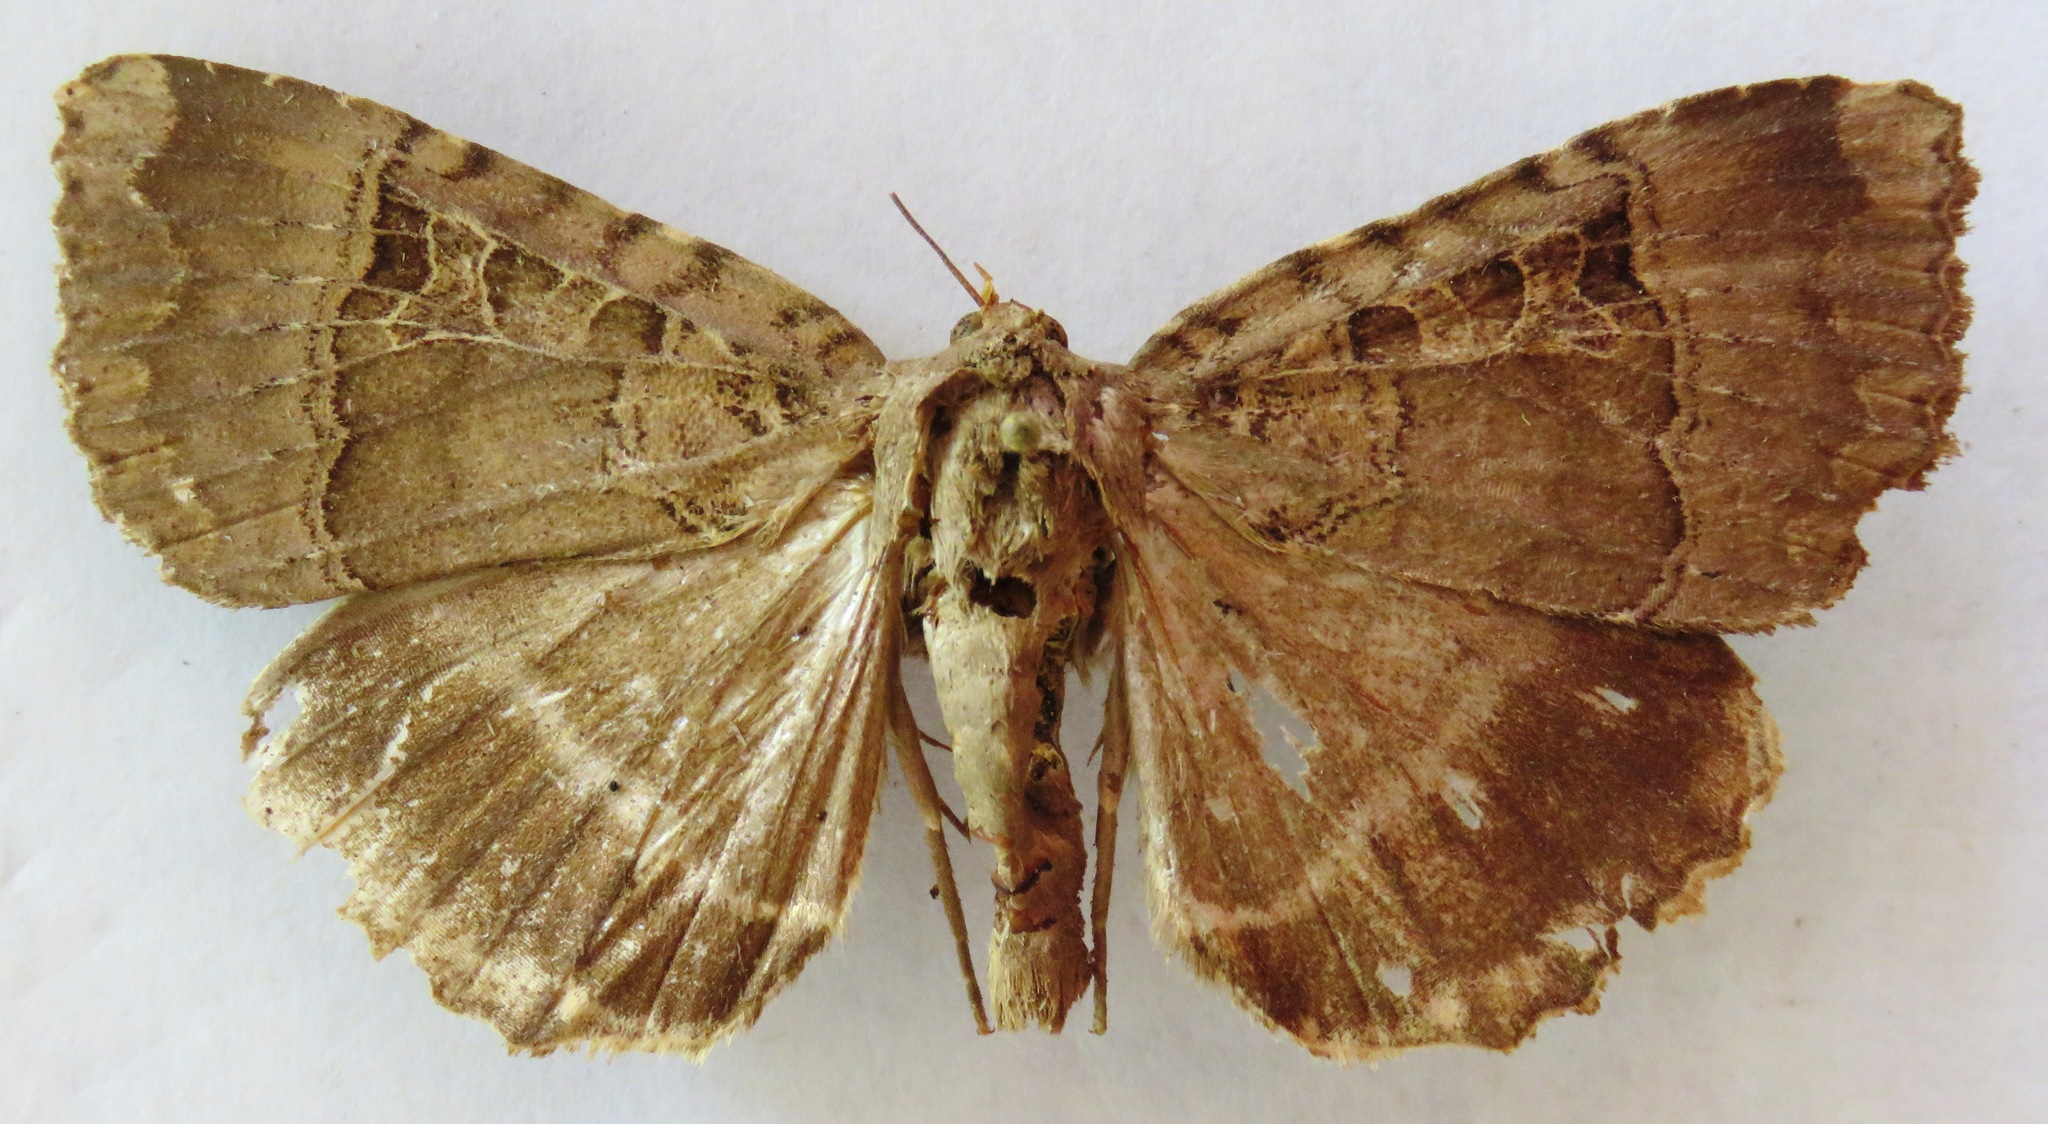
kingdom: Animalia
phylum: Arthropoda
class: Insecta
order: Lepidoptera
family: Noctuidae
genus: Mormo
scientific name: Mormo maura
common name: Old lady
